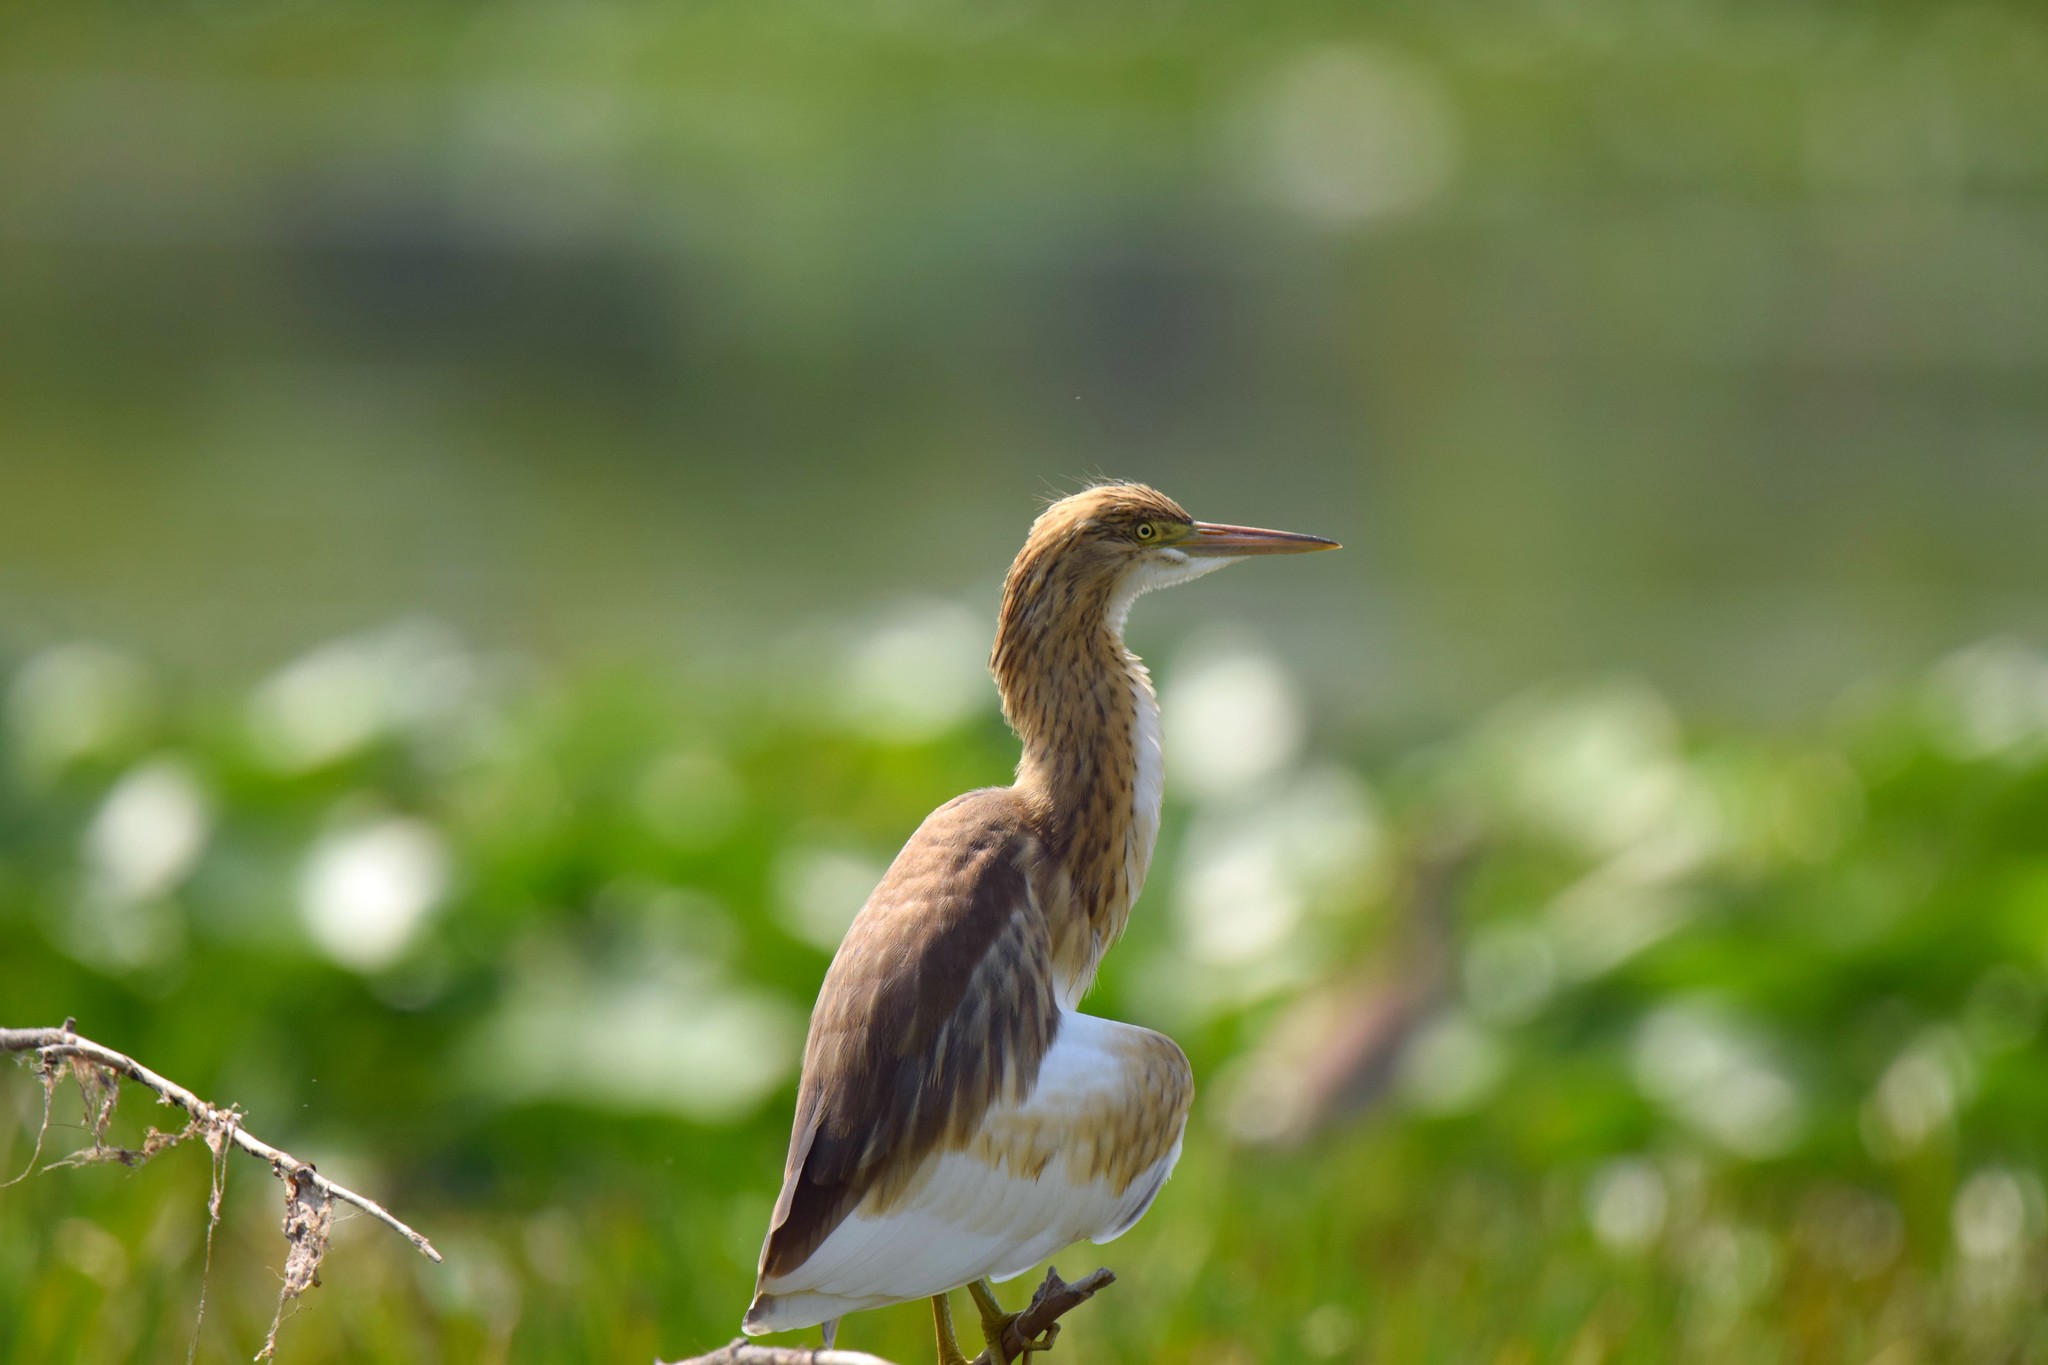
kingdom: Animalia
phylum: Chordata
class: Aves
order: Pelecaniformes
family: Ardeidae
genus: Ardeola
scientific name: Ardeola ralloides
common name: Squacco heron
